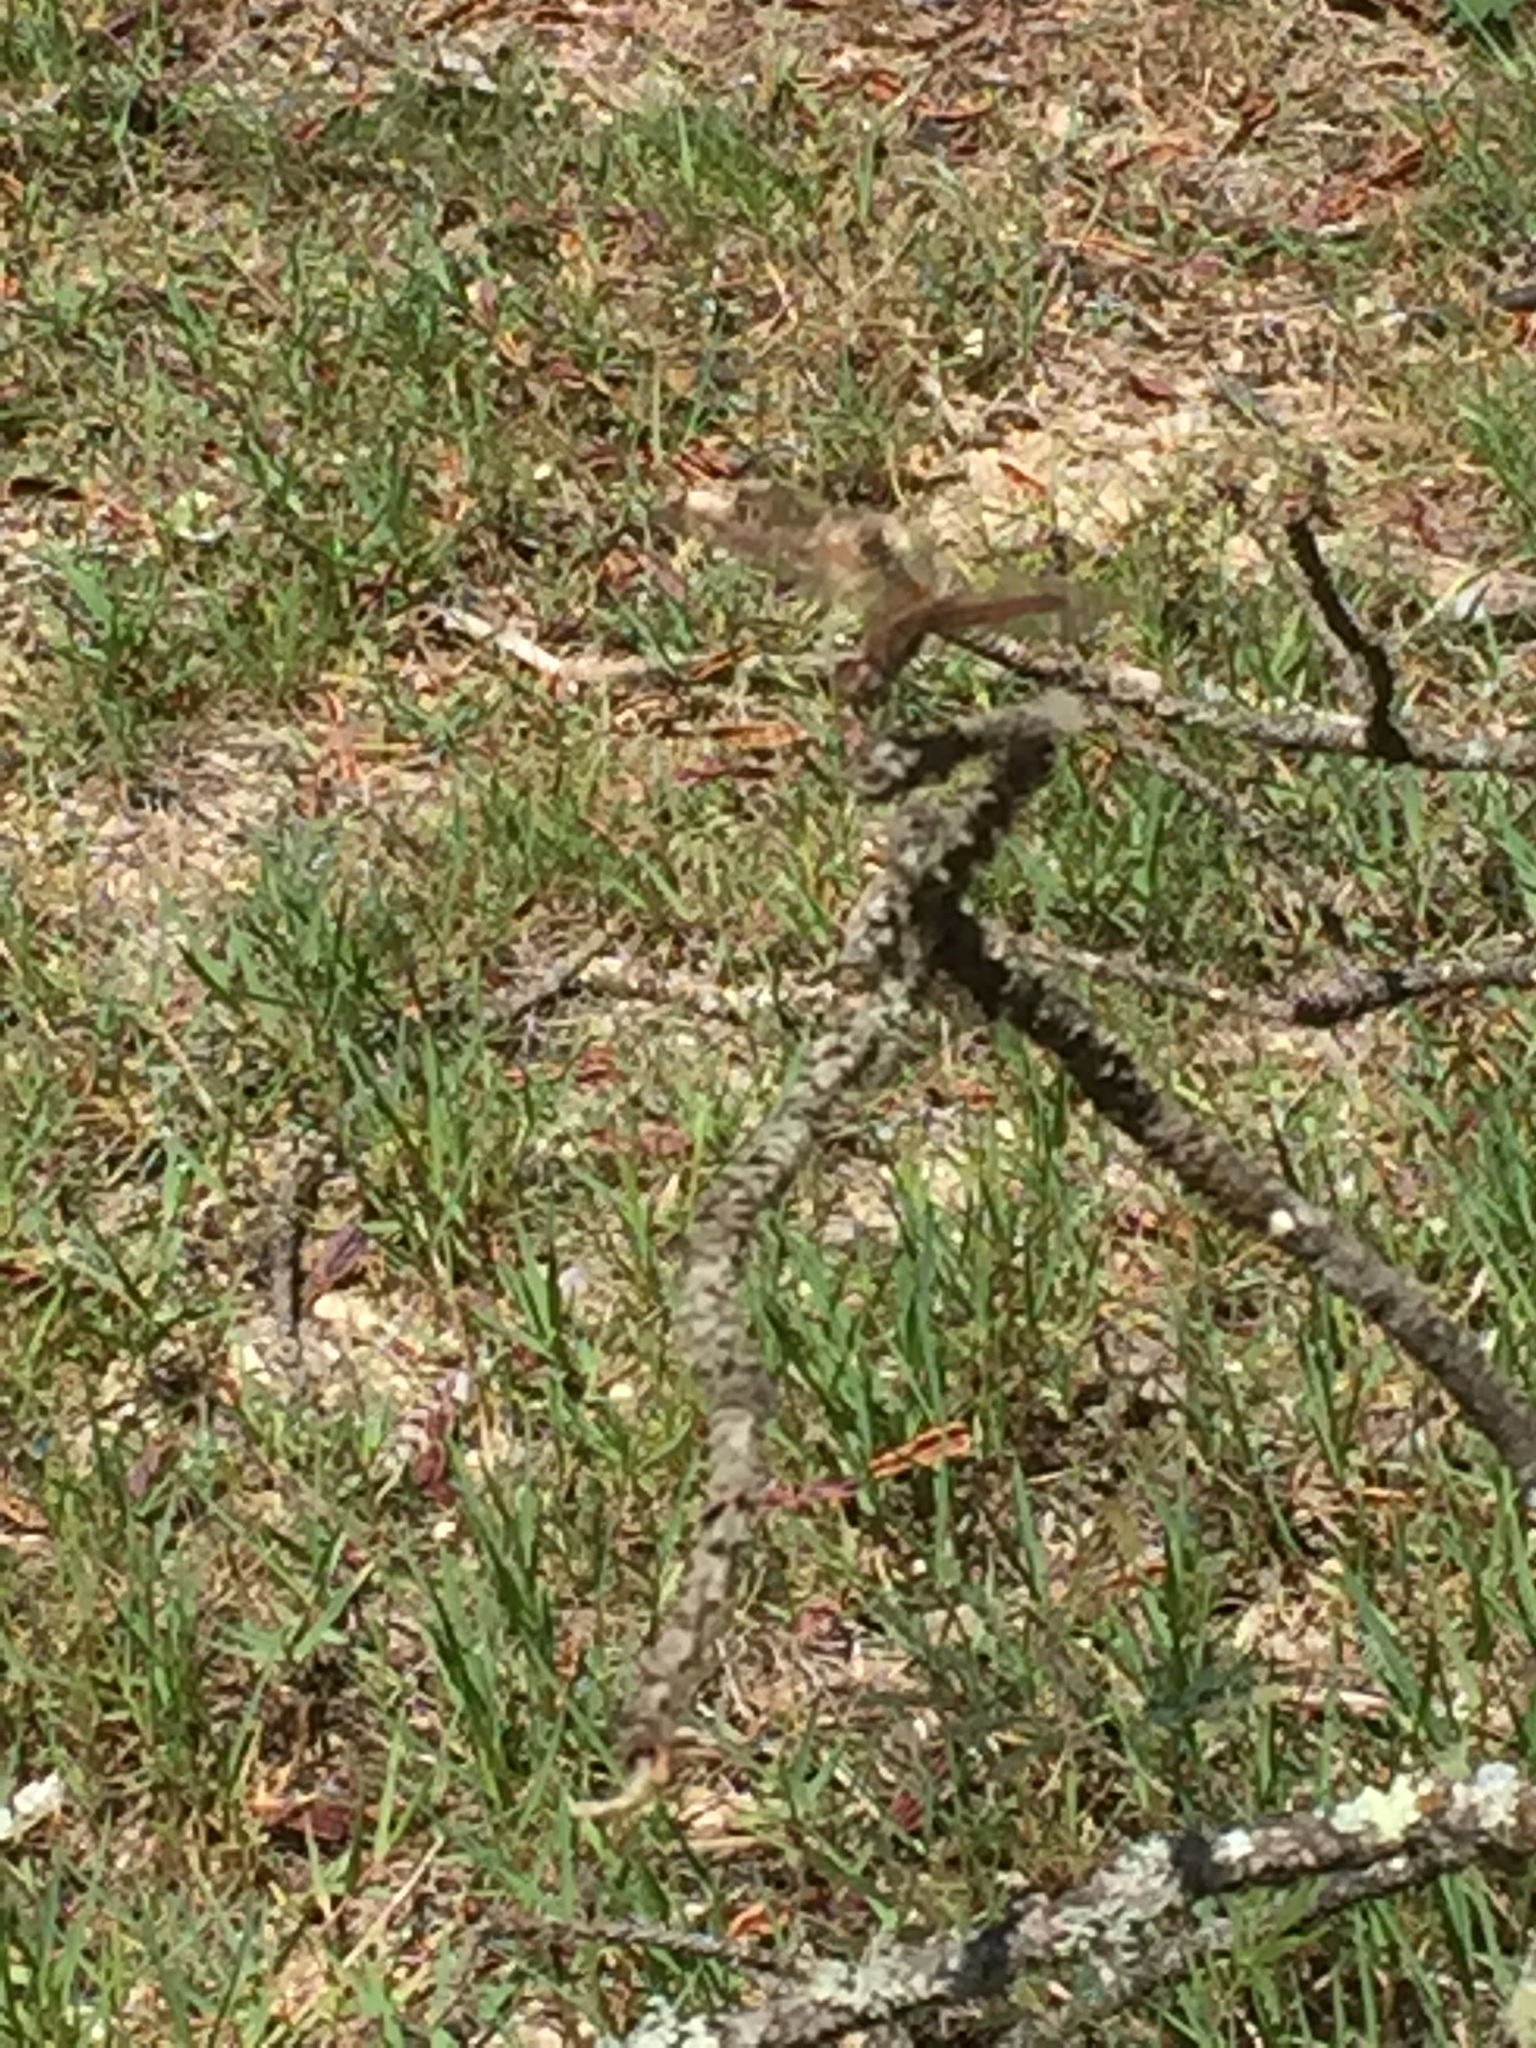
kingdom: Animalia
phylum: Arthropoda
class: Insecta
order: Odonata
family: Libellulidae
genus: Trithemis
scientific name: Trithemis annulata
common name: Violet dropwing
